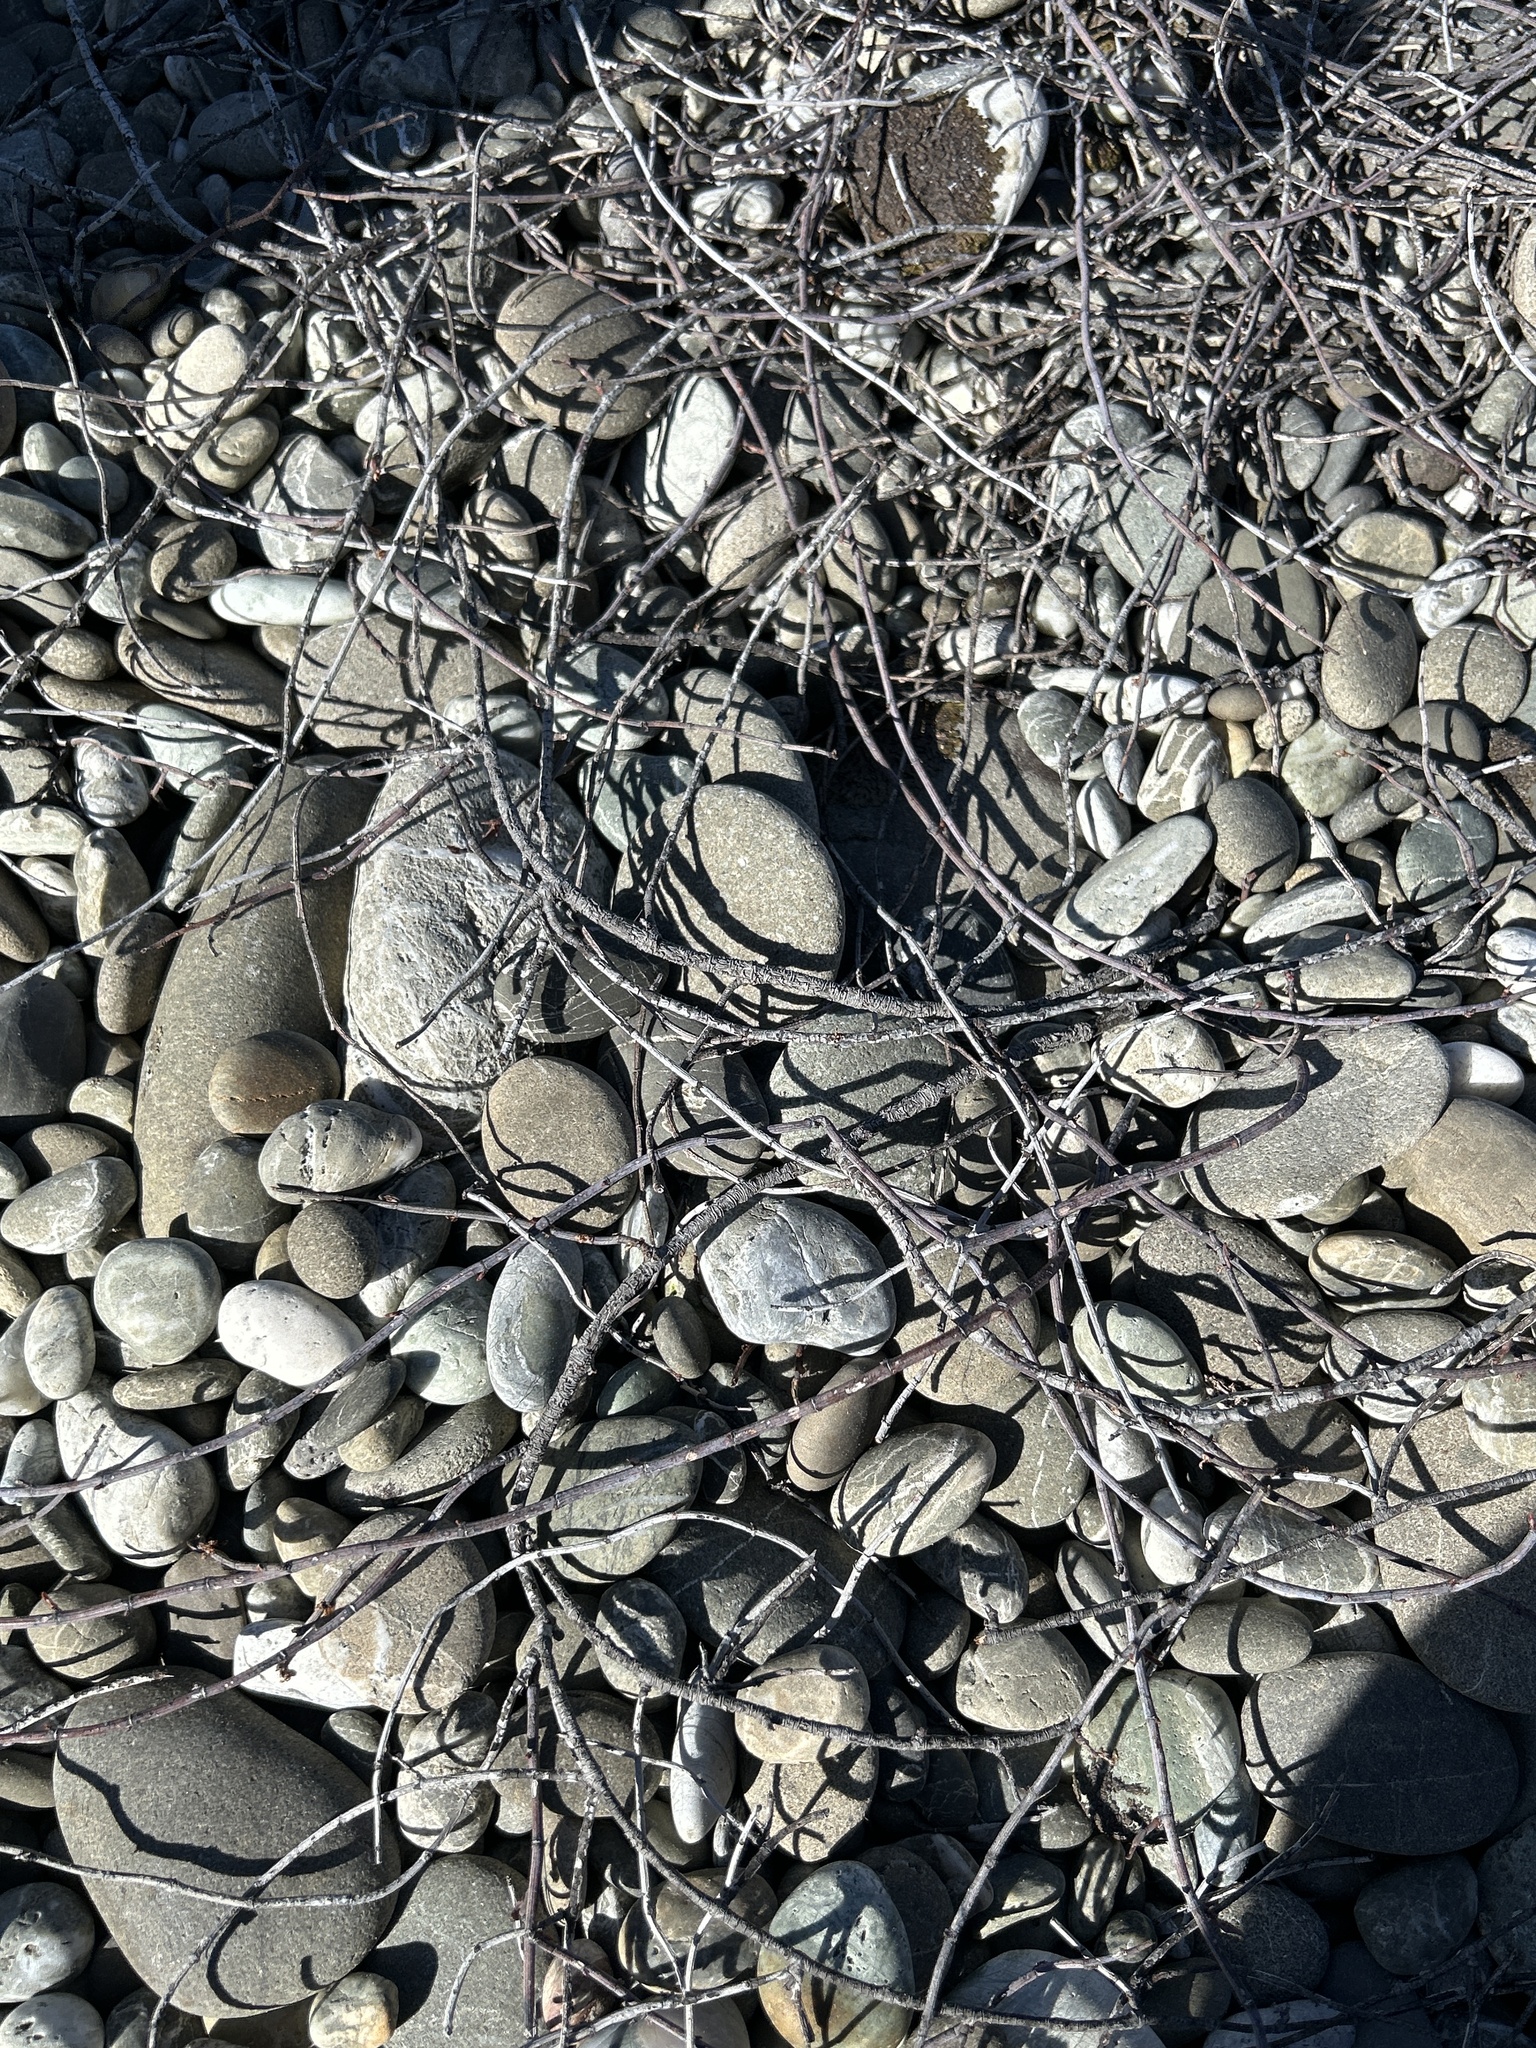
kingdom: Plantae
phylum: Tracheophyta
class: Magnoliopsida
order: Caryophyllales
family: Polygonaceae
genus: Muehlenbeckia
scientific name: Muehlenbeckia ephedroides
